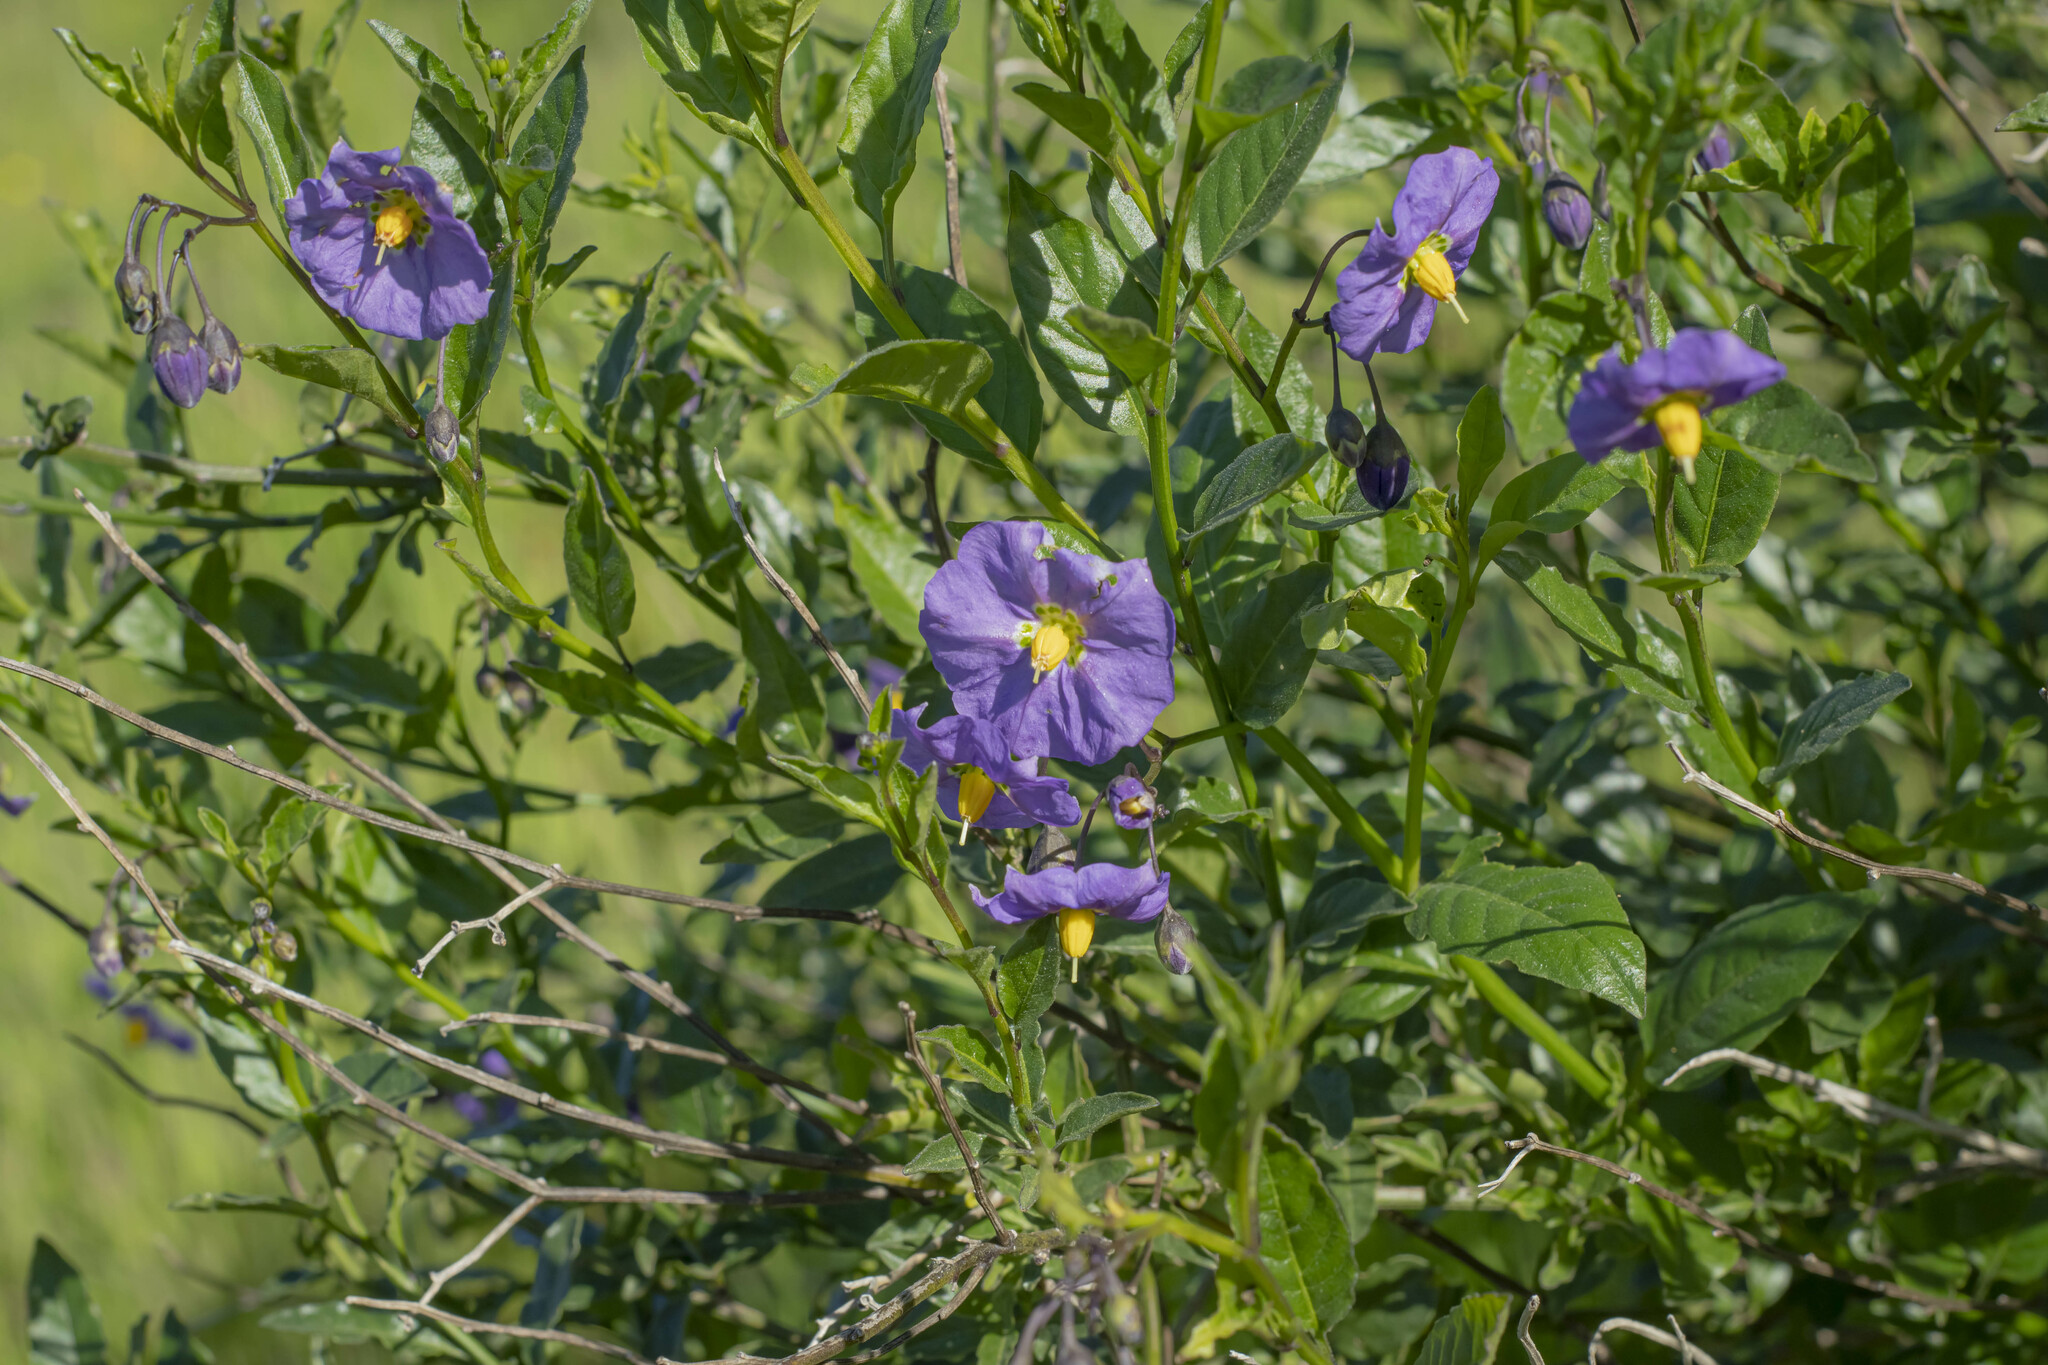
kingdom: Plantae
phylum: Tracheophyta
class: Magnoliopsida
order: Solanales
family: Solanaceae
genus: Solanum
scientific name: Solanum umbelliferum
